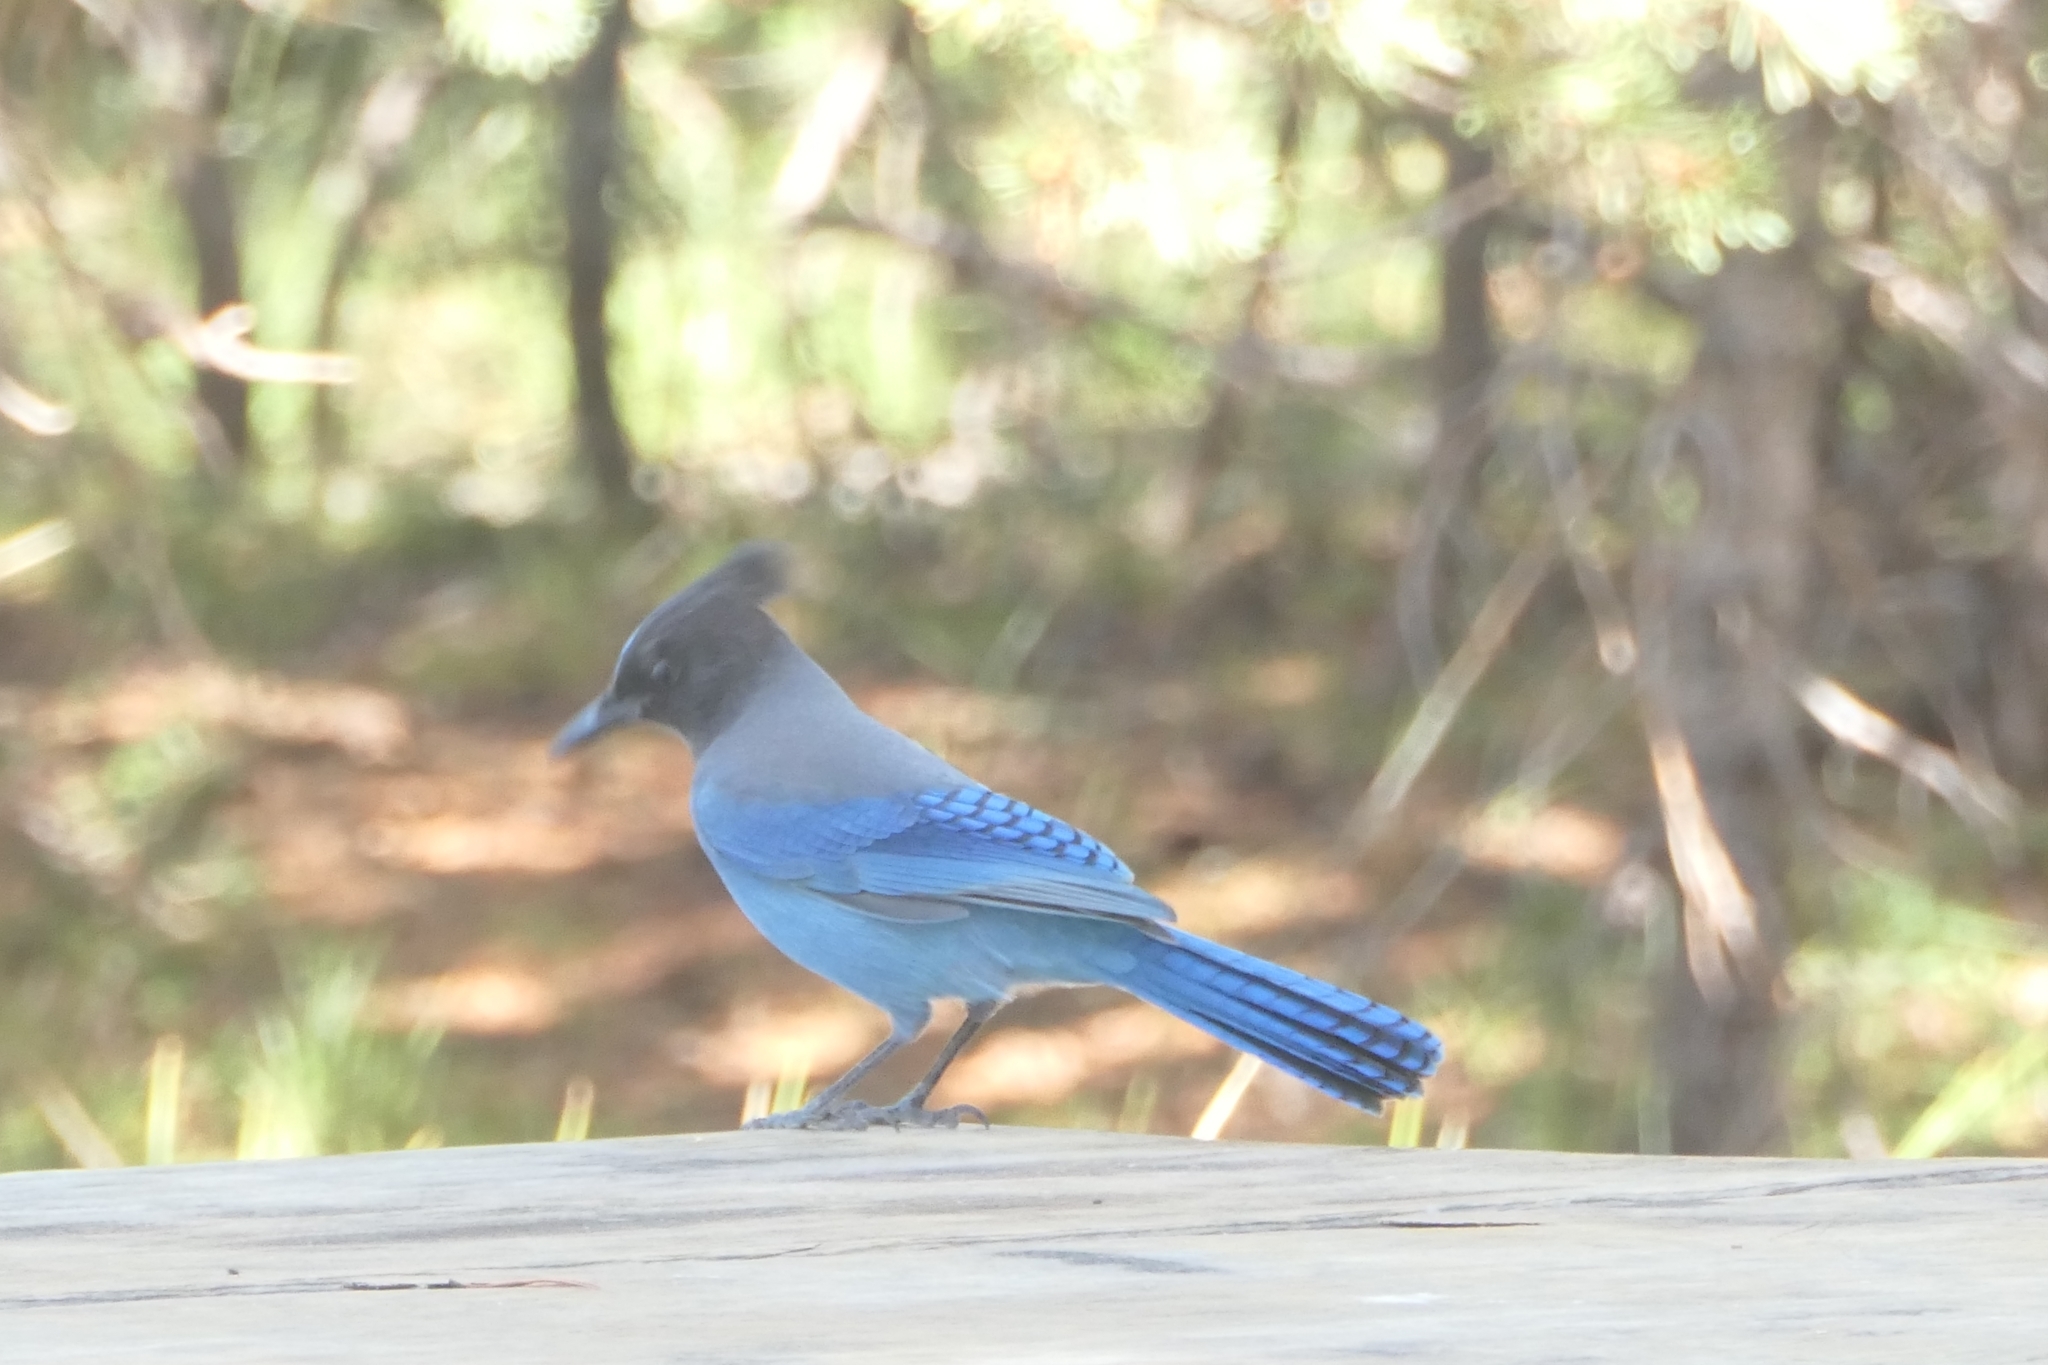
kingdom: Animalia
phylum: Chordata
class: Aves
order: Passeriformes
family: Corvidae
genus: Cyanocitta
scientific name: Cyanocitta stelleri
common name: Steller's jay
